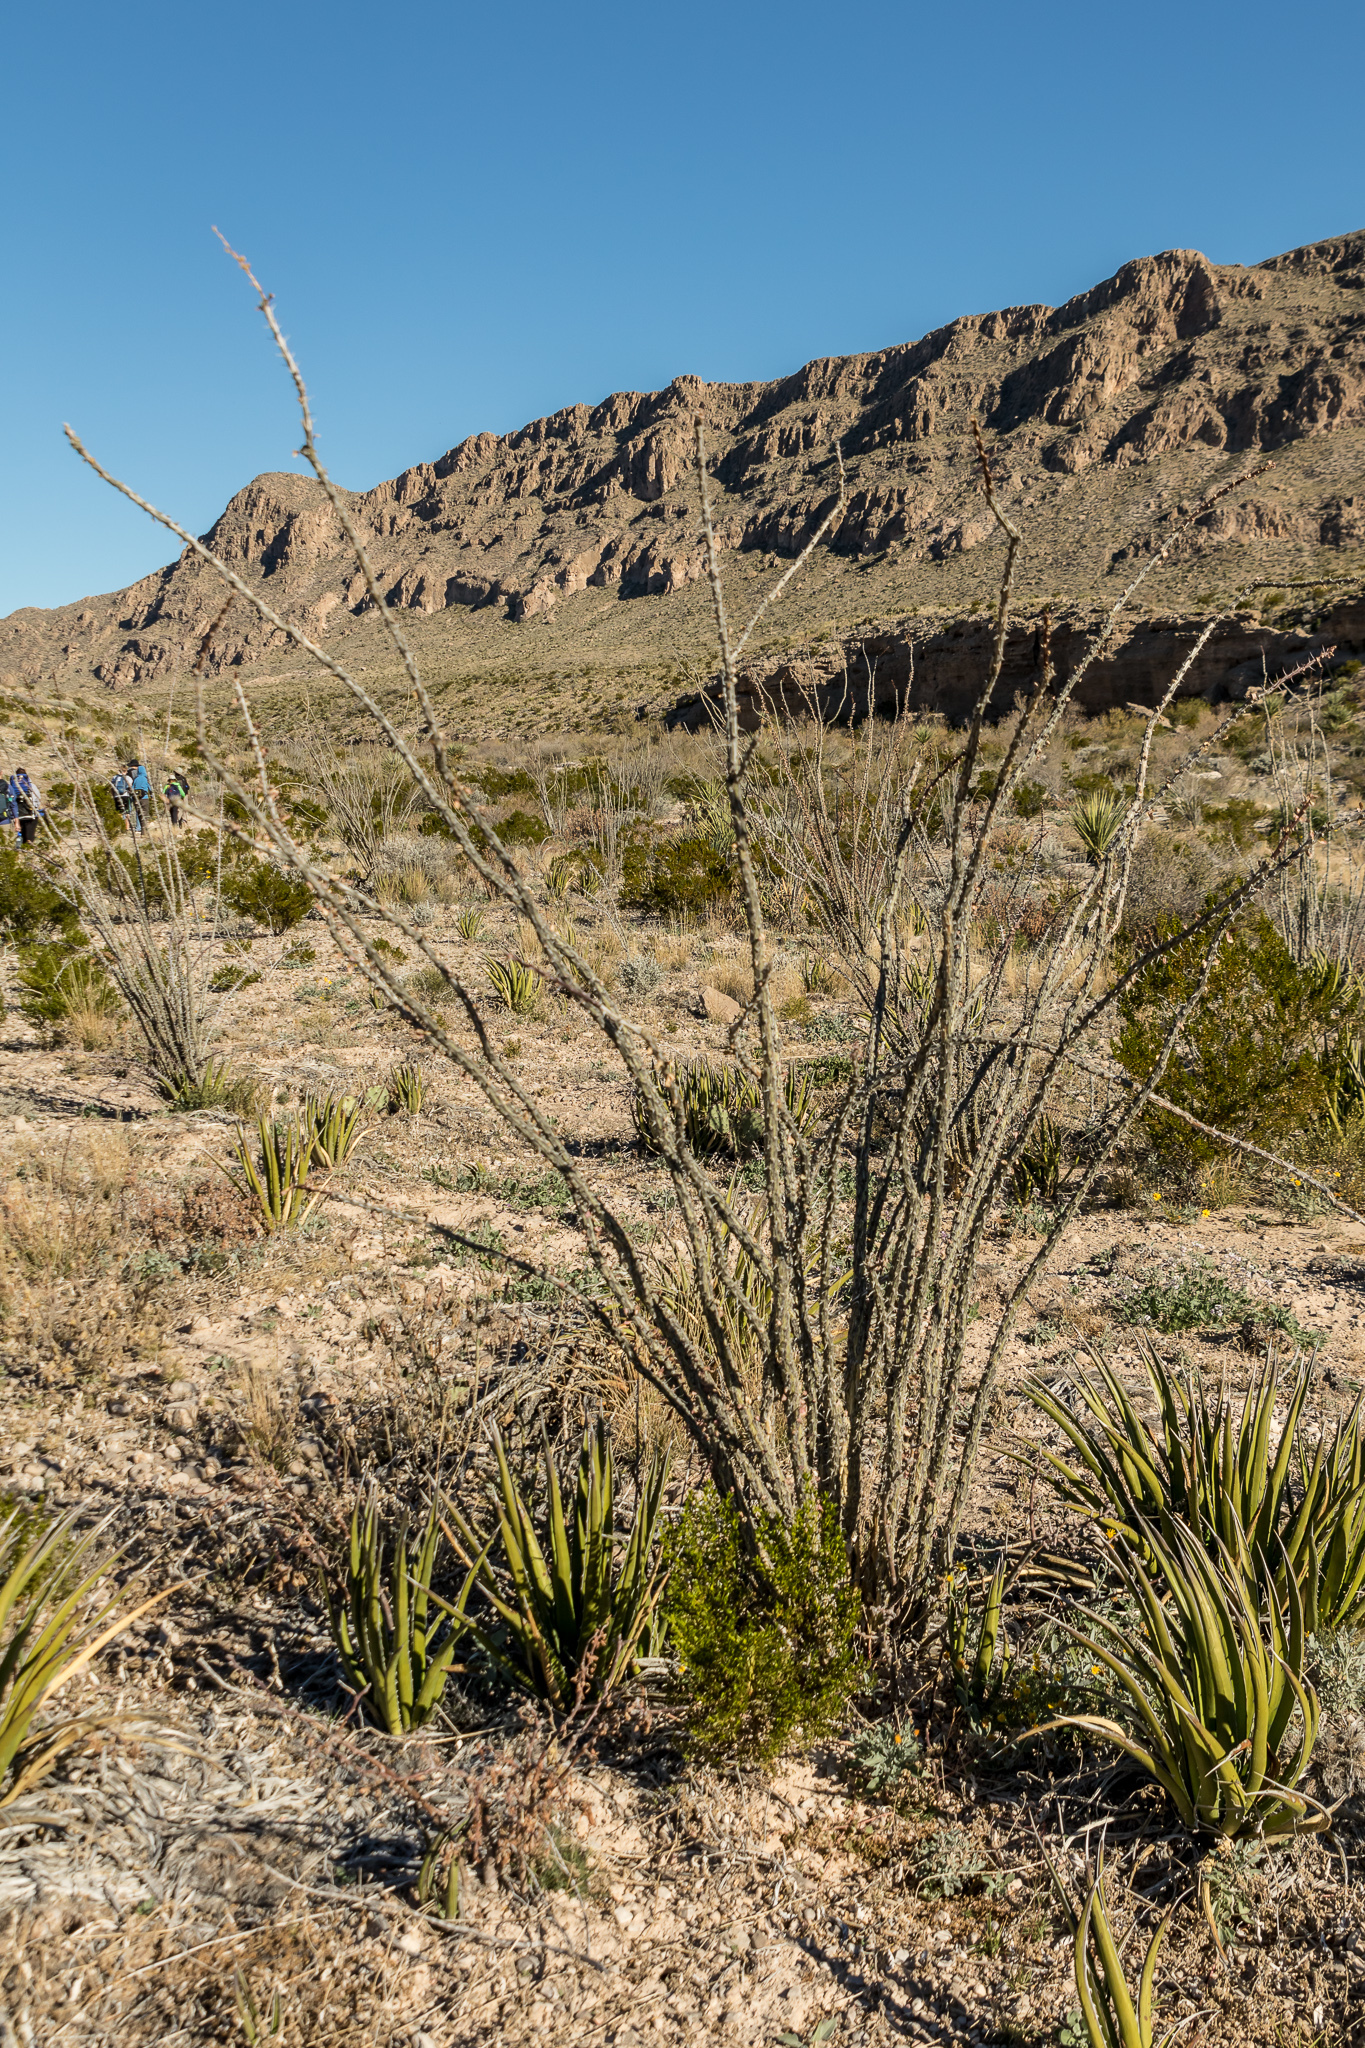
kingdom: Plantae
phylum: Tracheophyta
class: Magnoliopsida
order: Ericales
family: Fouquieriaceae
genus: Fouquieria
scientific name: Fouquieria splendens
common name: Vine-cactus
